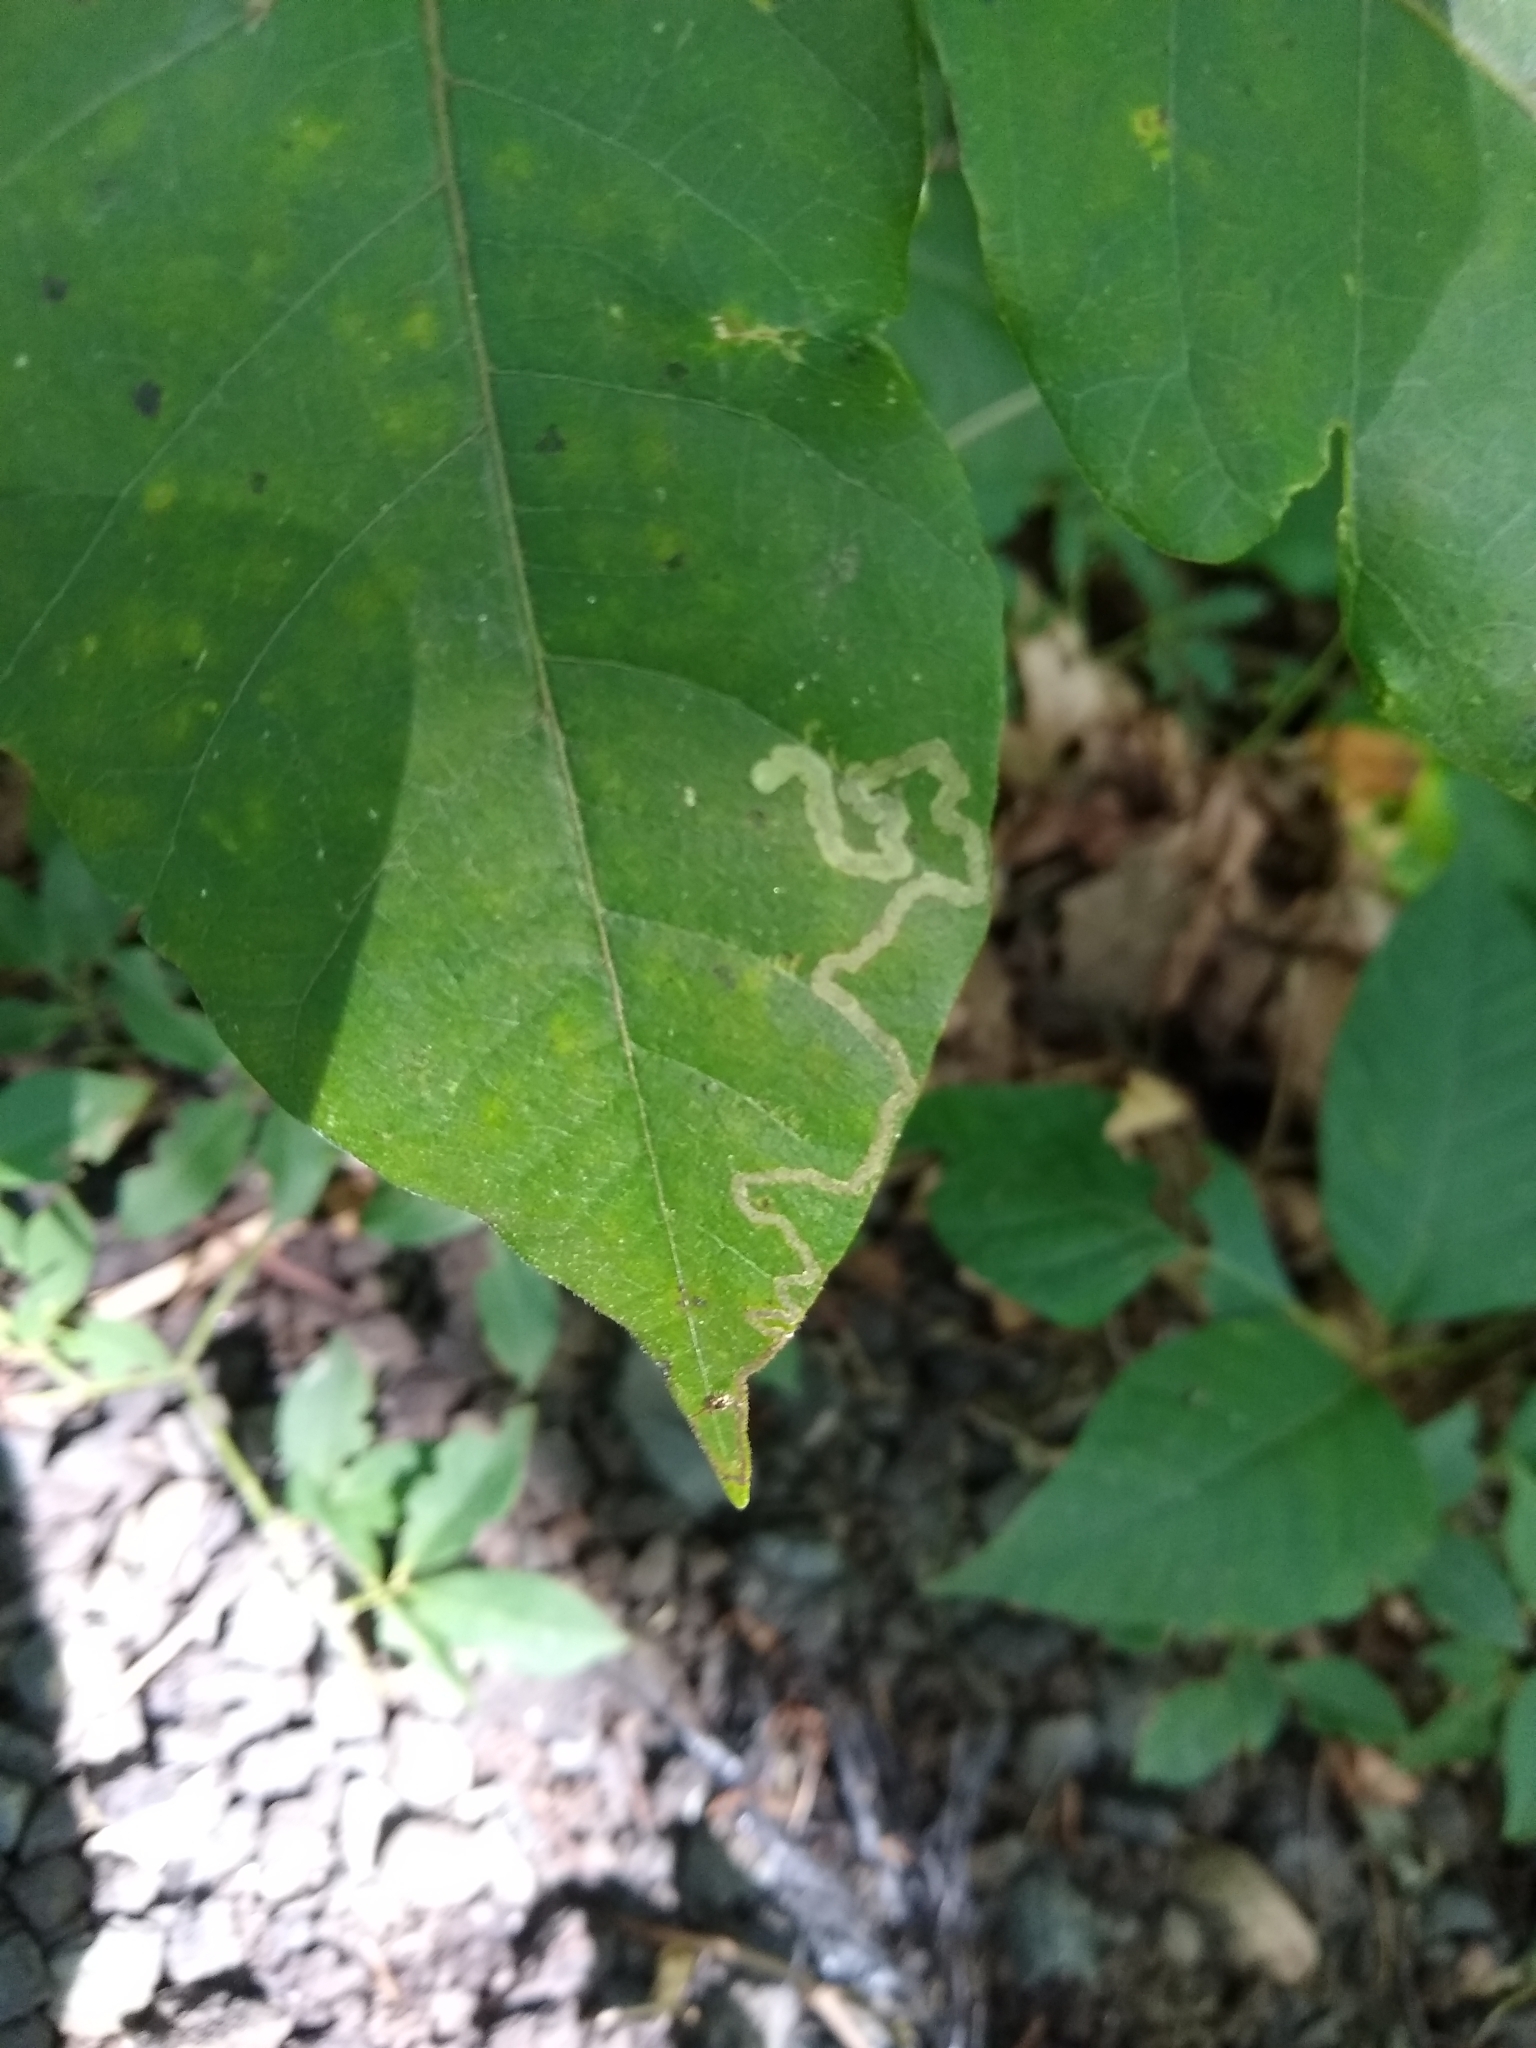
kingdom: Animalia
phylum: Arthropoda
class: Insecta
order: Lepidoptera
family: Nepticulidae
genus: Stigmella
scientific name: Stigmella rhoifoliella
